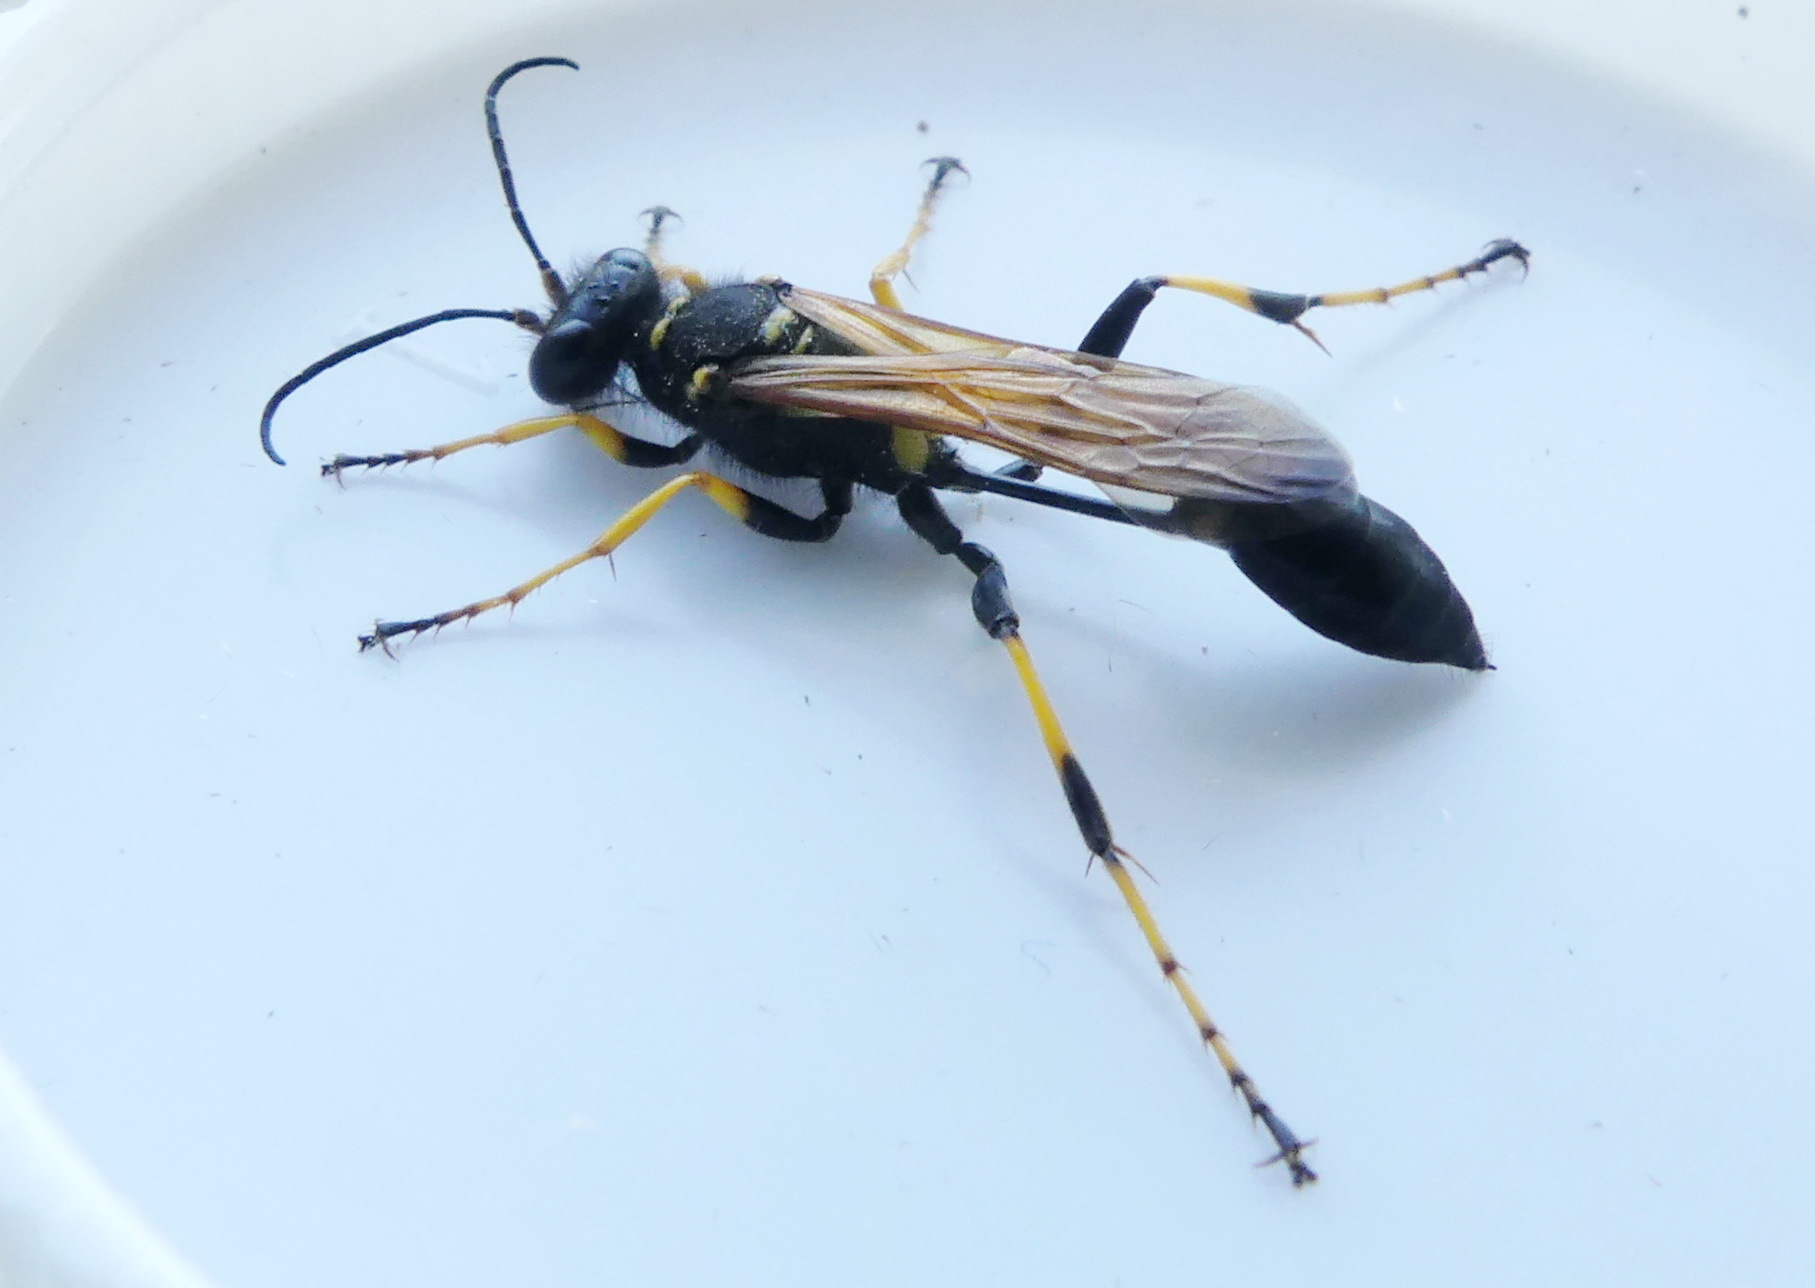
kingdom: Animalia
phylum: Arthropoda
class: Insecta
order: Hymenoptera
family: Sphecidae
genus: Sceliphron
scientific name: Sceliphron caementarium
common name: Mud dauber
